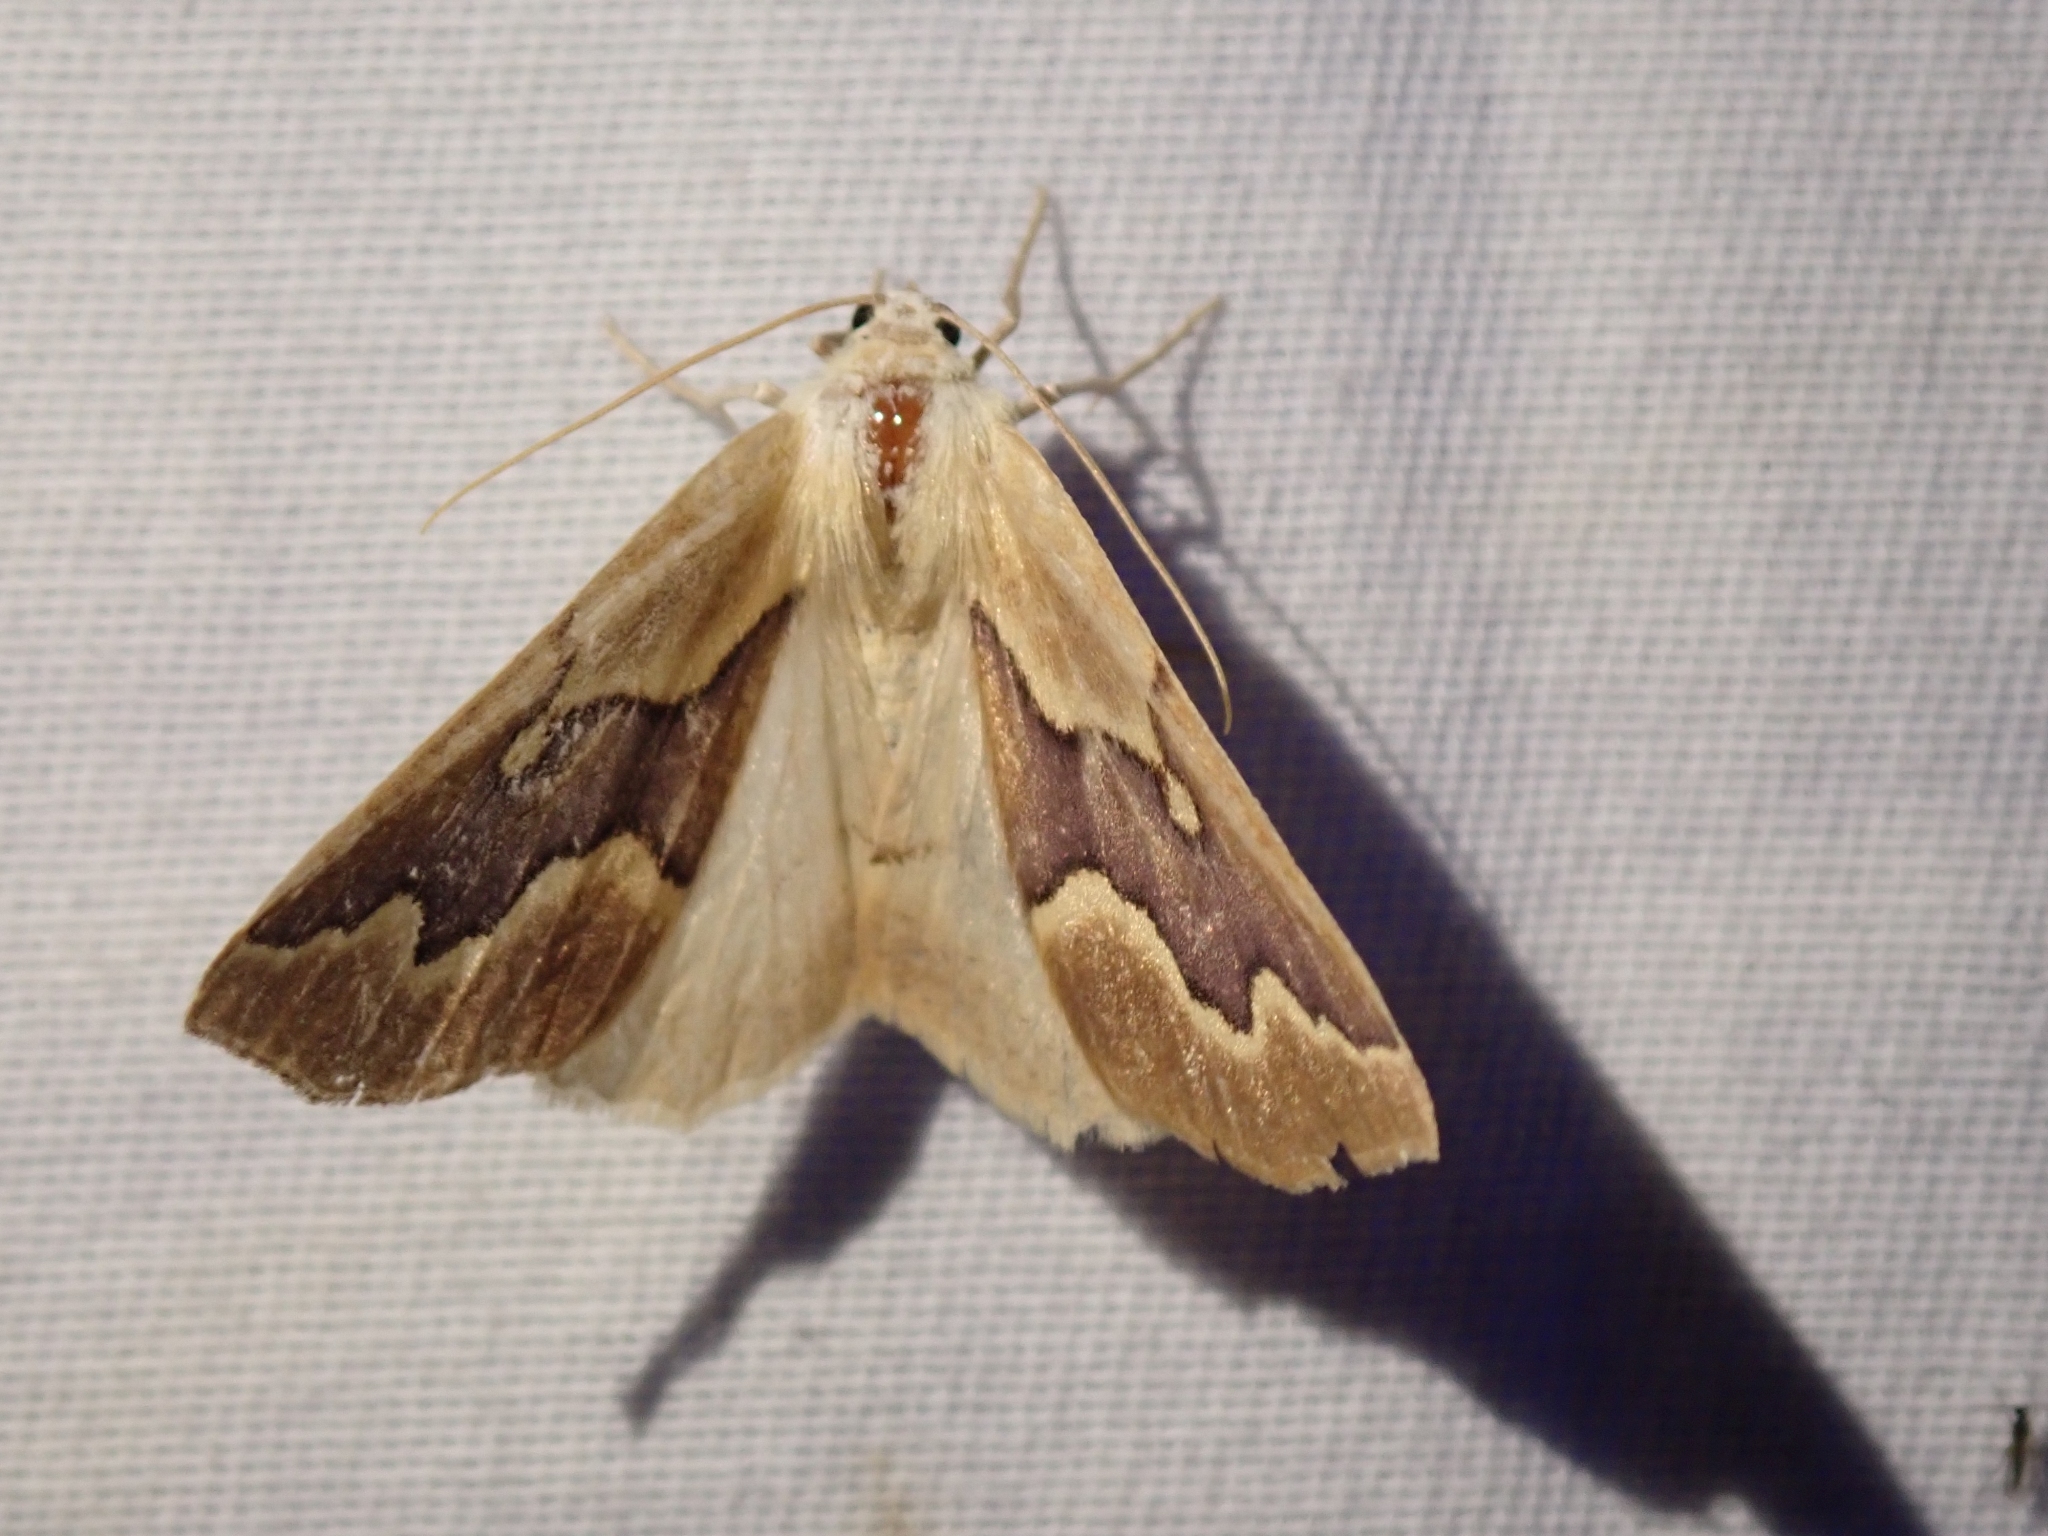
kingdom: Animalia
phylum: Arthropoda
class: Insecta
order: Lepidoptera
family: Geometridae
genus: Sabulodes
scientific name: Sabulodes edwardsata
